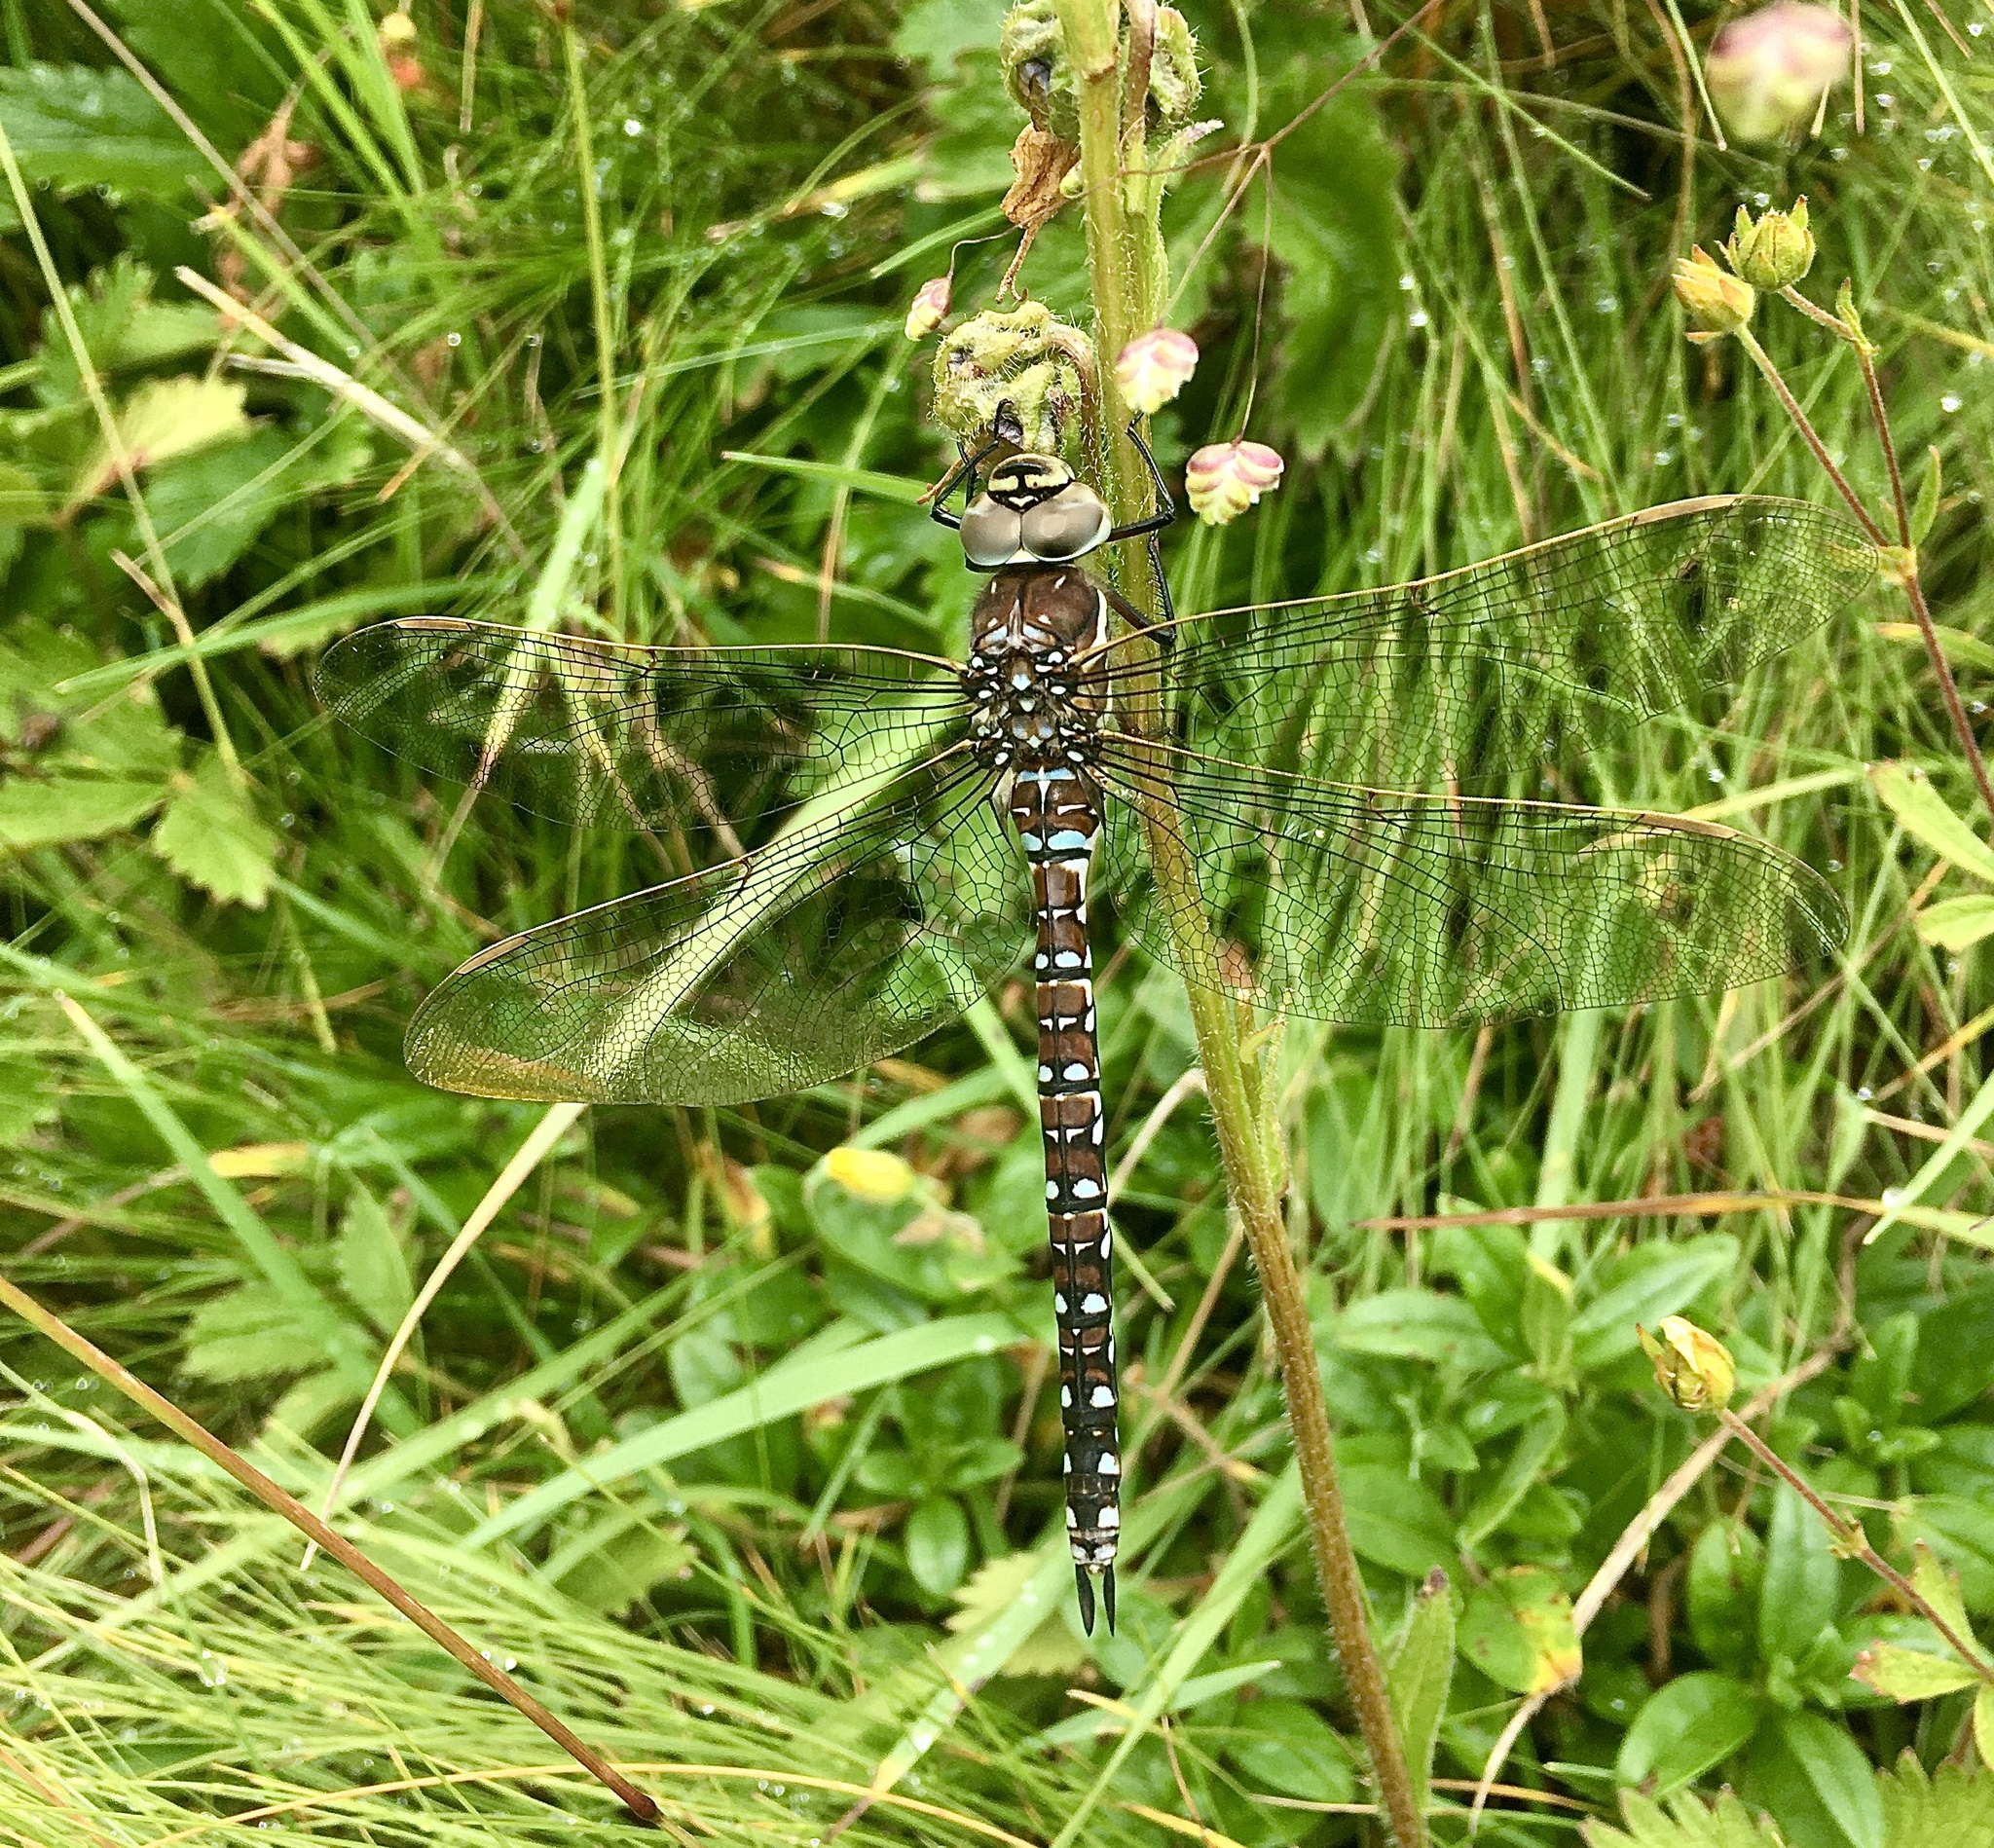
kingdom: Animalia
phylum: Arthropoda
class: Insecta
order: Odonata
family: Aeshnidae
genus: Aeshna
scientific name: Aeshna mixta
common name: Migrant hawker
